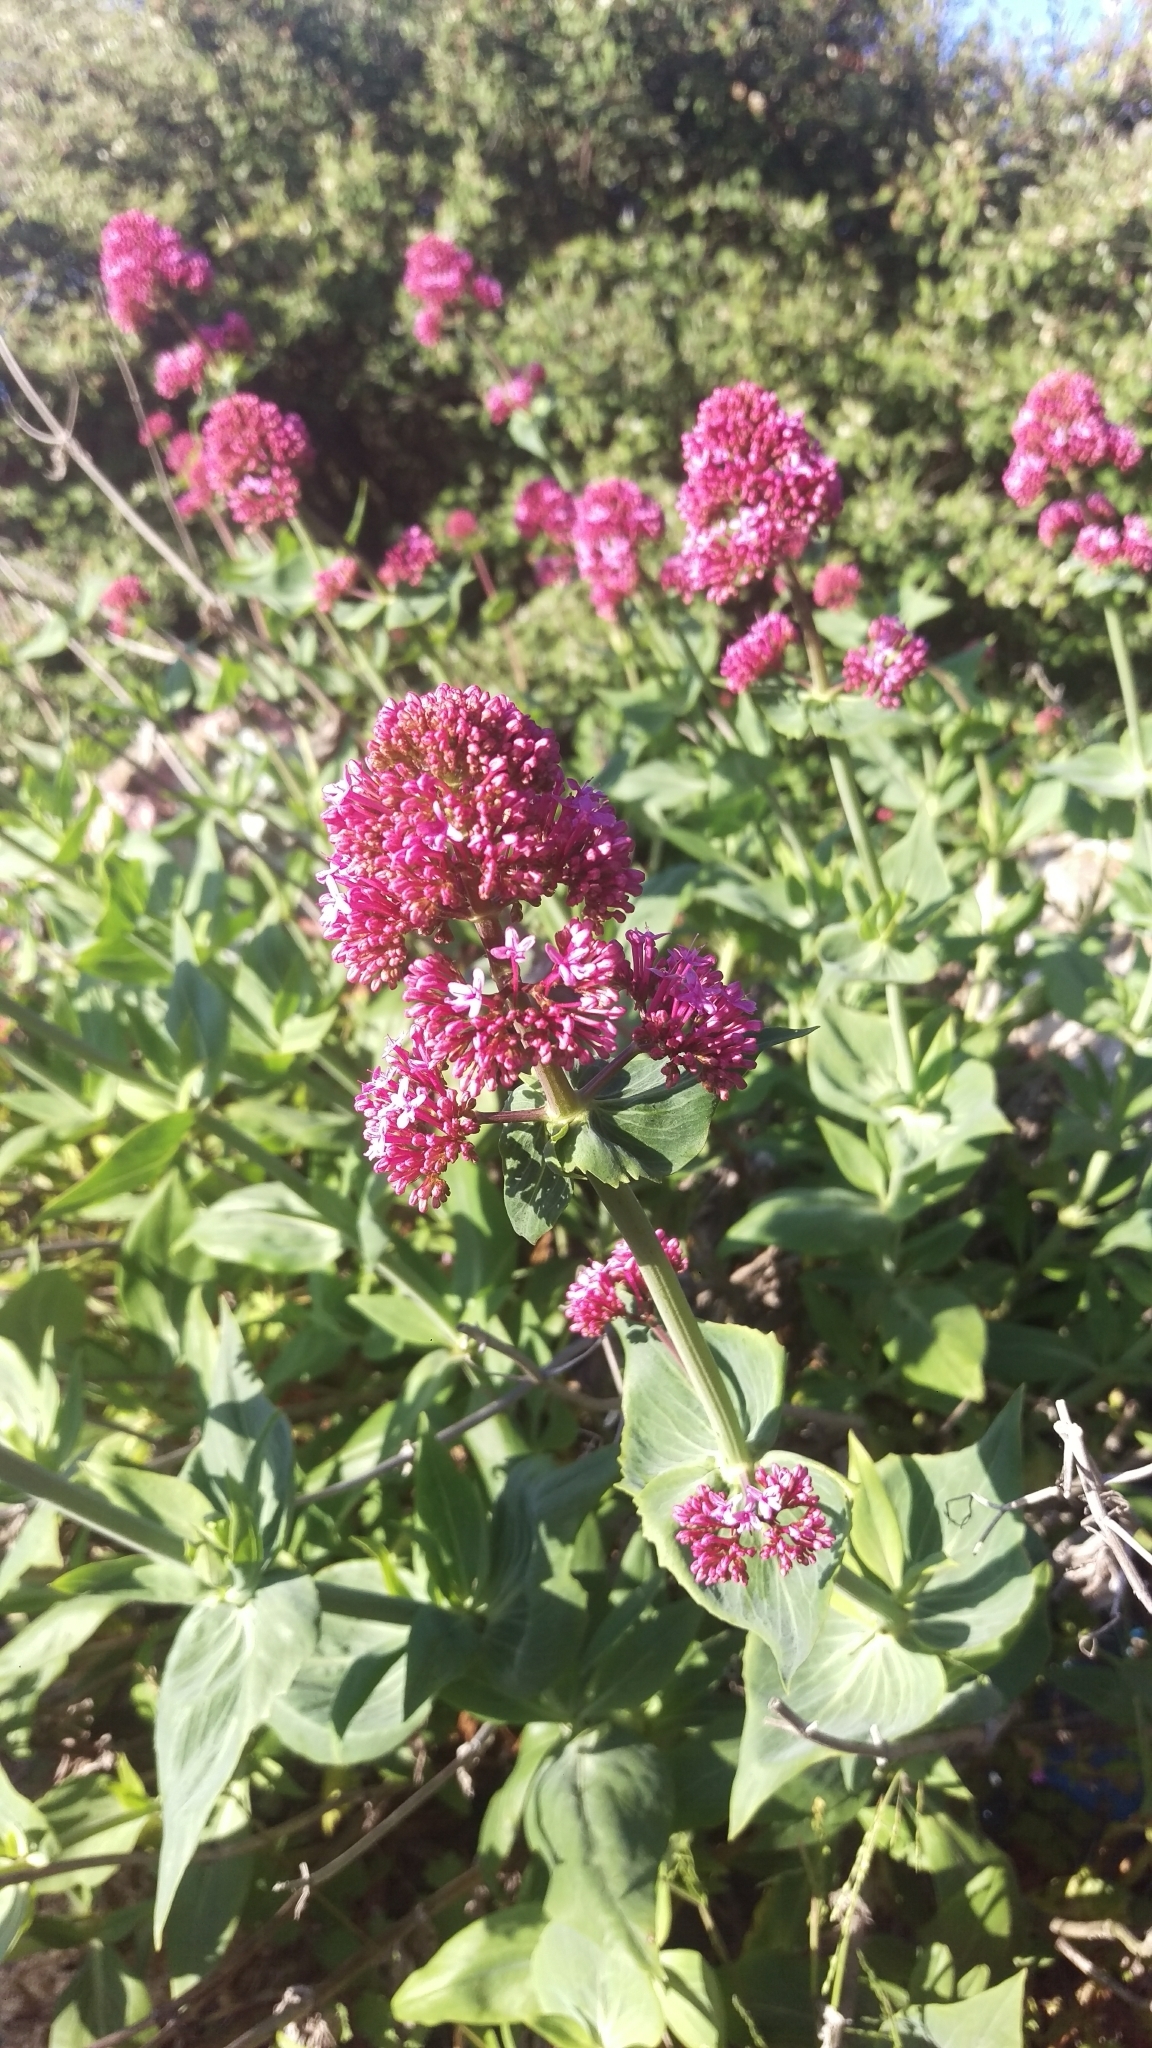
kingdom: Plantae
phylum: Tracheophyta
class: Magnoliopsida
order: Dipsacales
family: Caprifoliaceae
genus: Centranthus
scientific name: Centranthus ruber
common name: Red valerian
